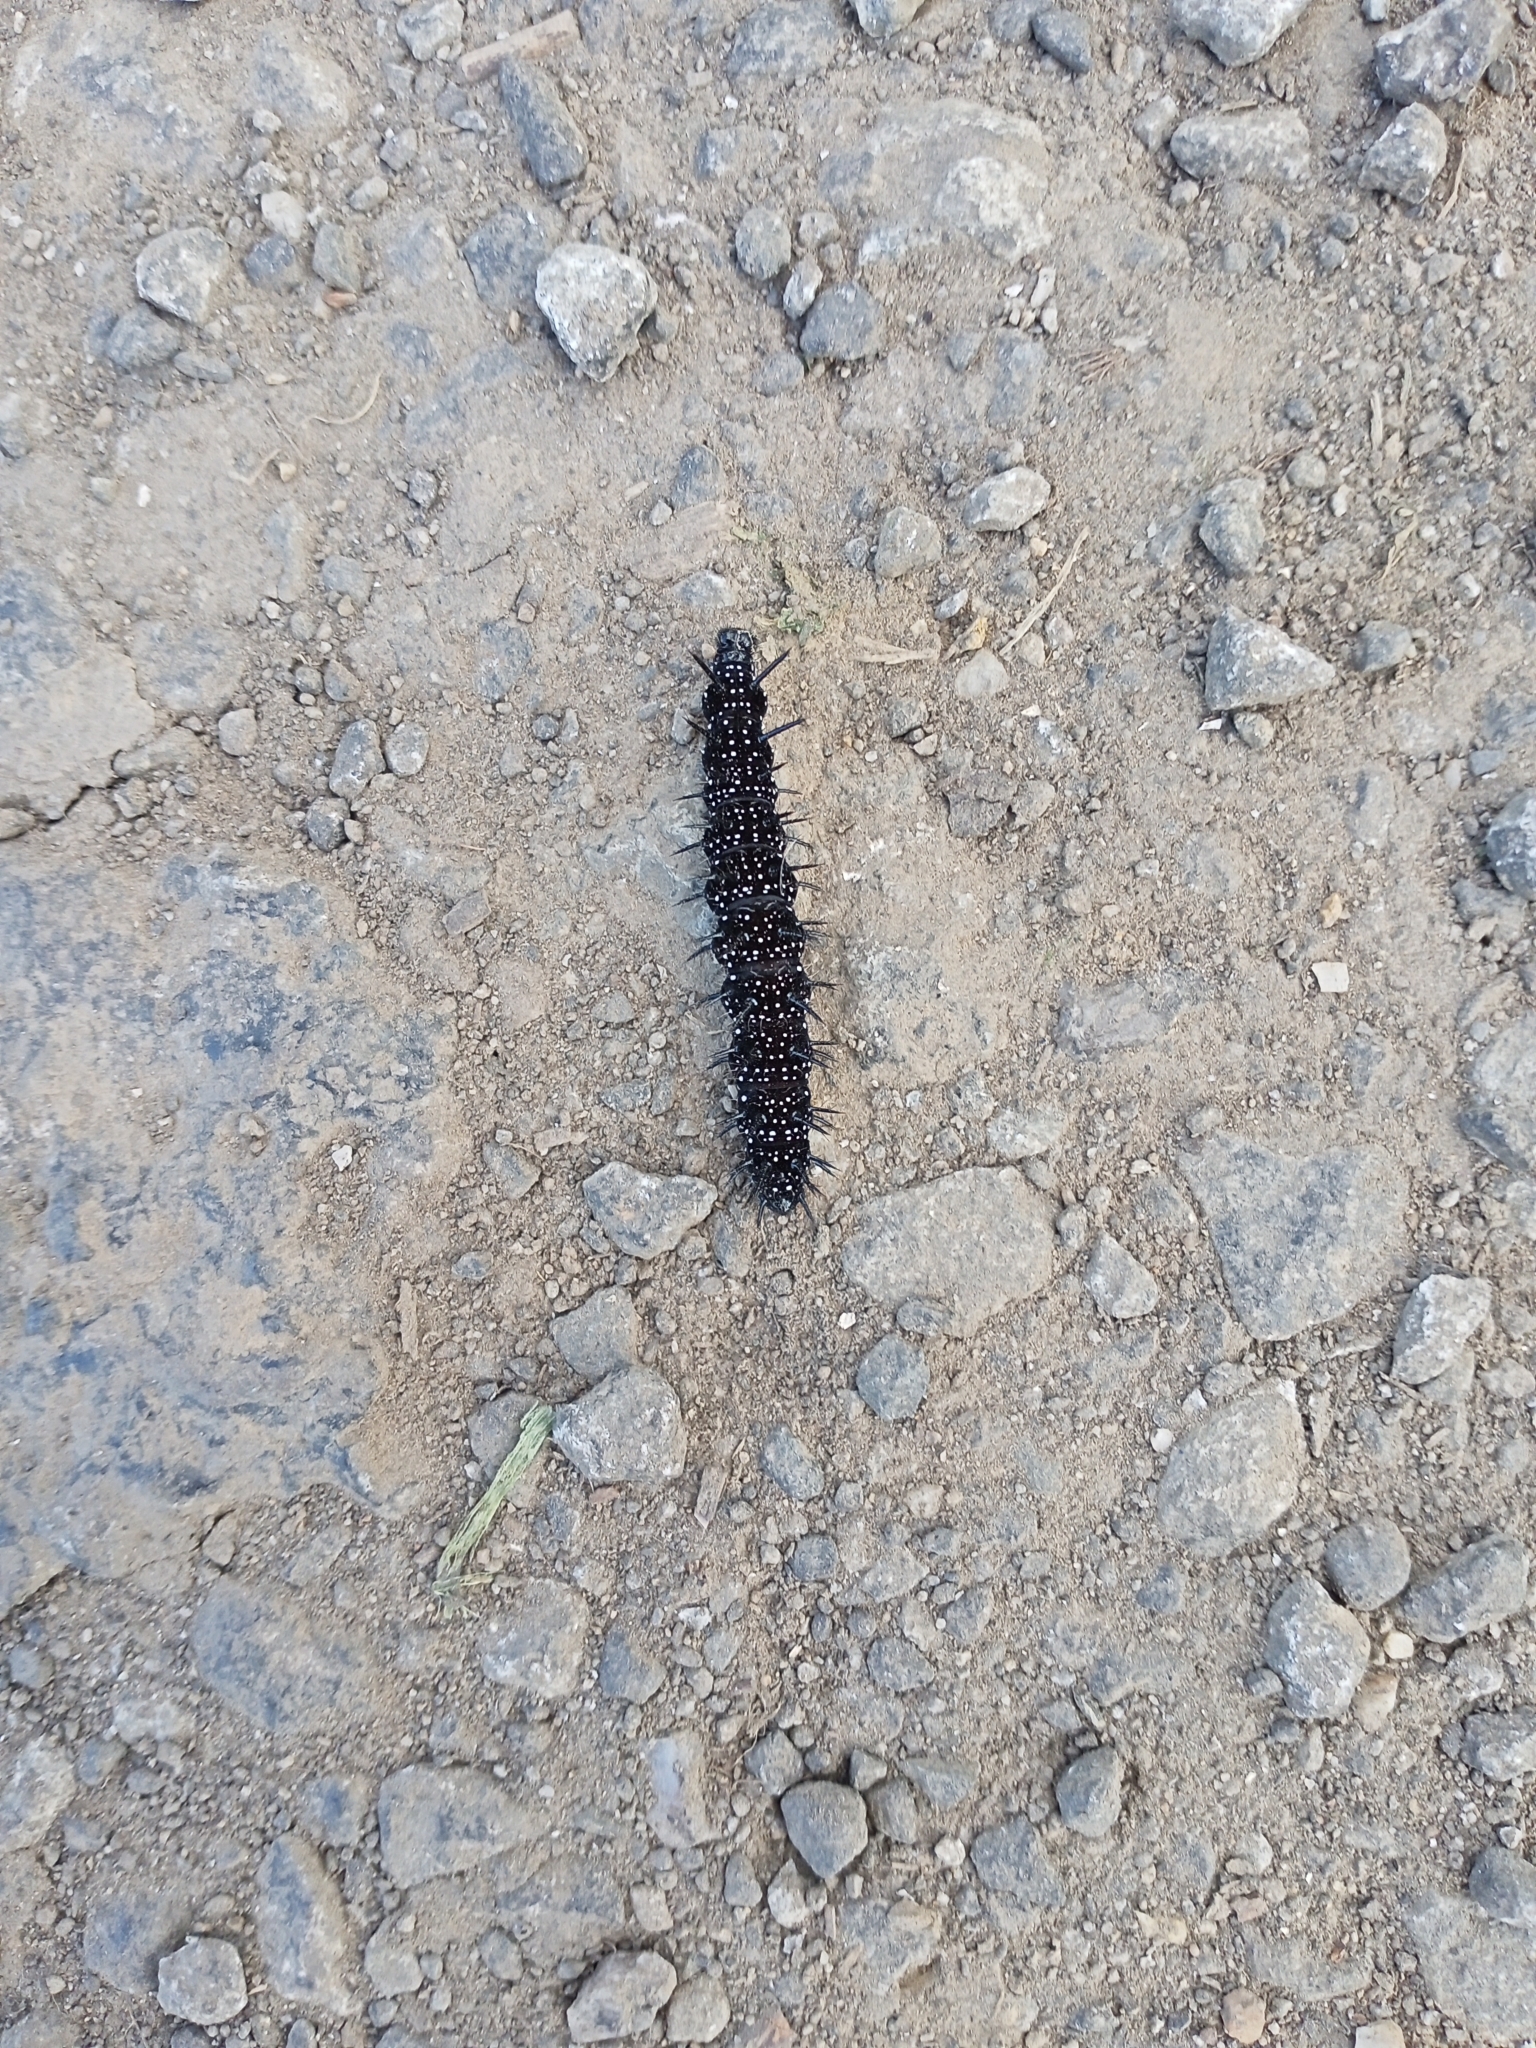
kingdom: Animalia
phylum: Arthropoda
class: Insecta
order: Lepidoptera
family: Nymphalidae
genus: Aglais
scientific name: Aglais io
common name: Peacock
